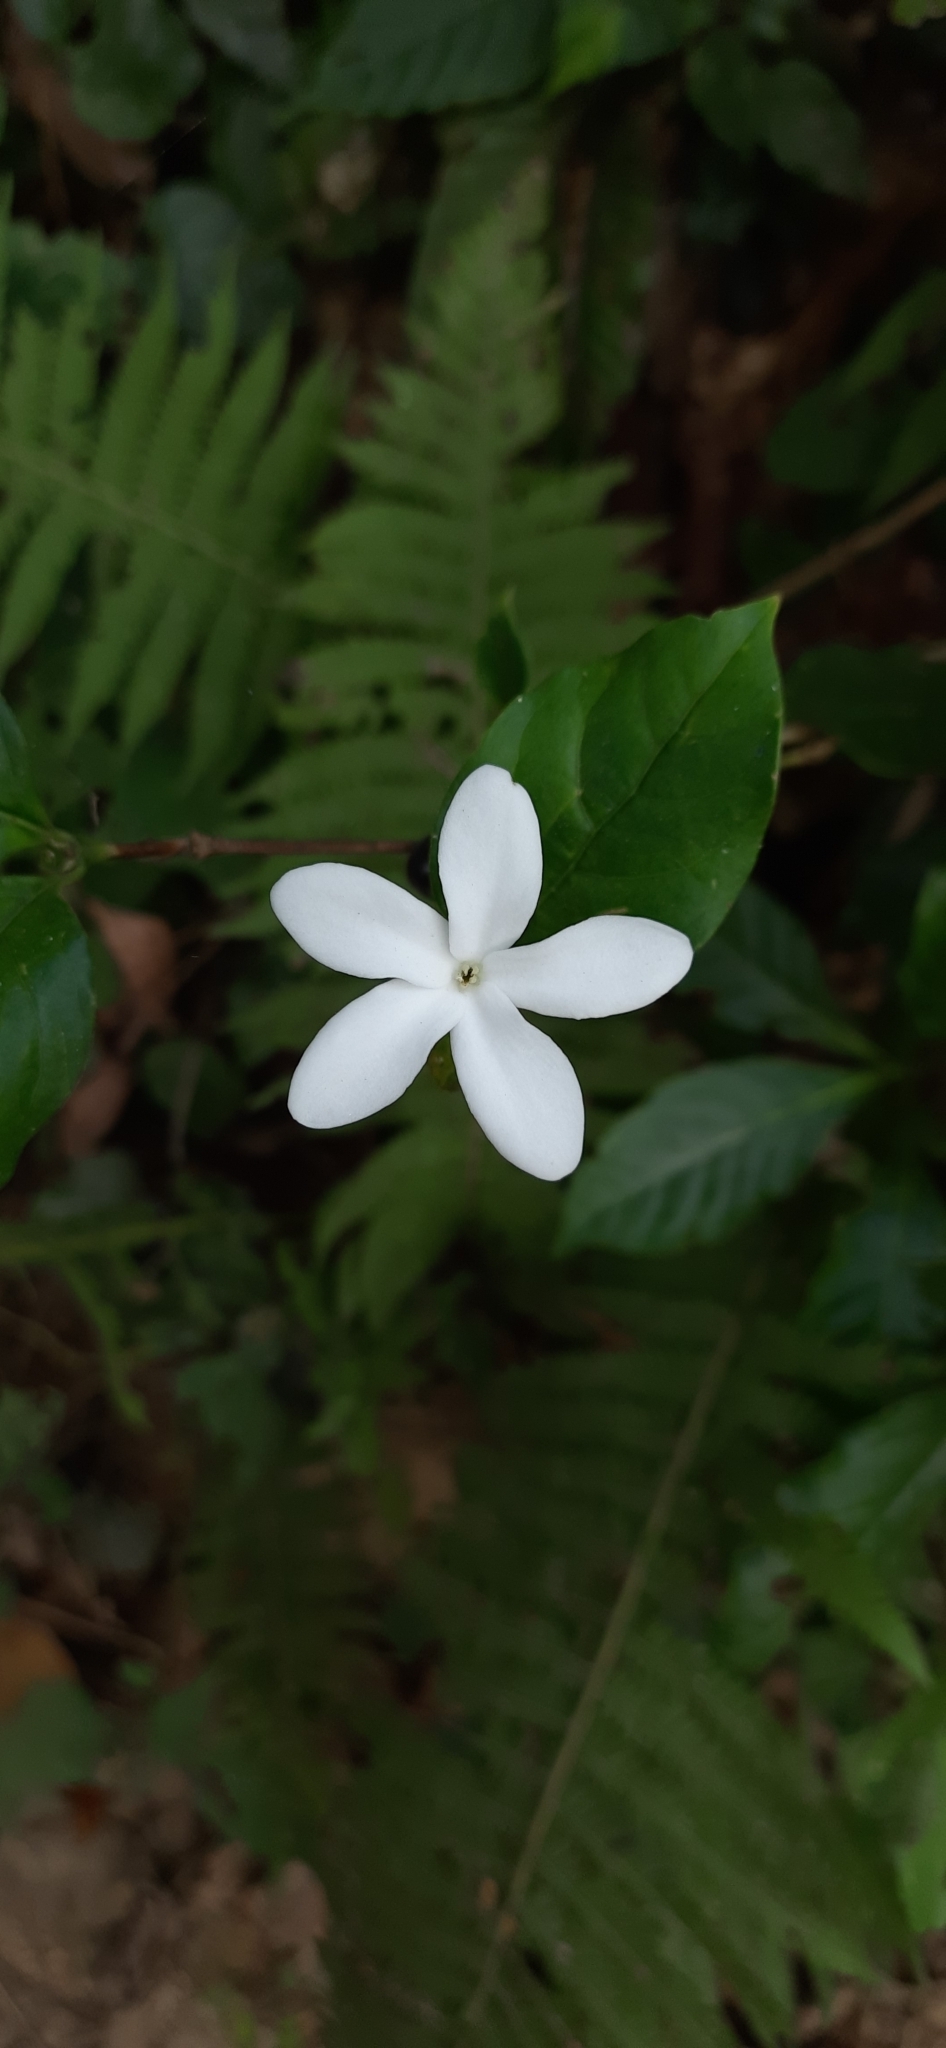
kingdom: Plantae
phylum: Tracheophyta
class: Magnoliopsida
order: Gentianales
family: Rubiaceae
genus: Coffea
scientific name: Coffea benghalensis
